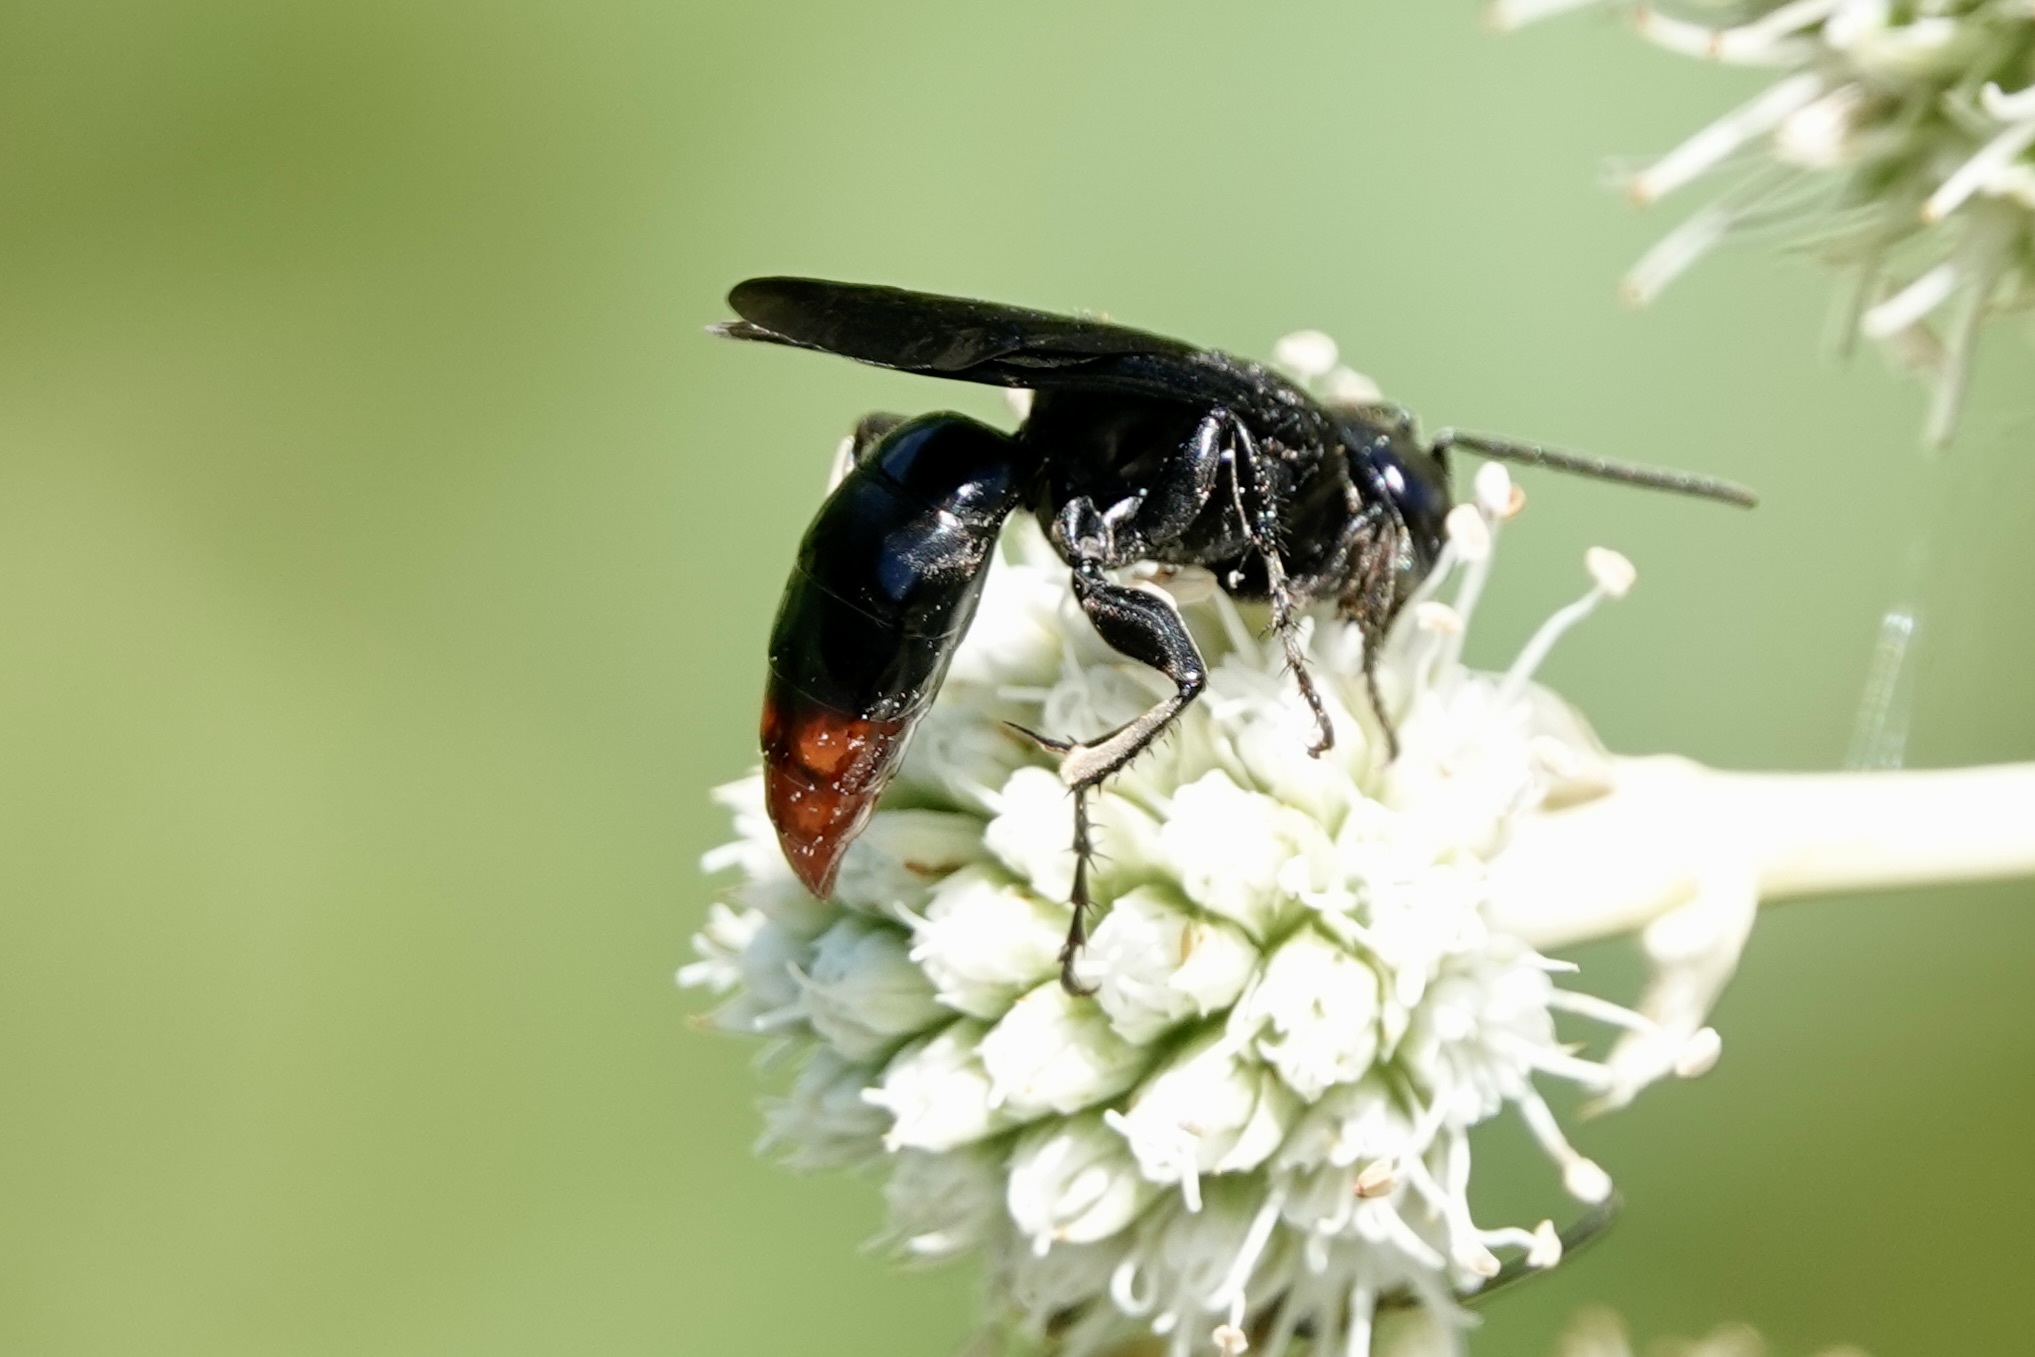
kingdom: Animalia
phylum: Arthropoda
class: Insecta
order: Hymenoptera
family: Crabronidae
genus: Larra
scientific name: Larra analis
